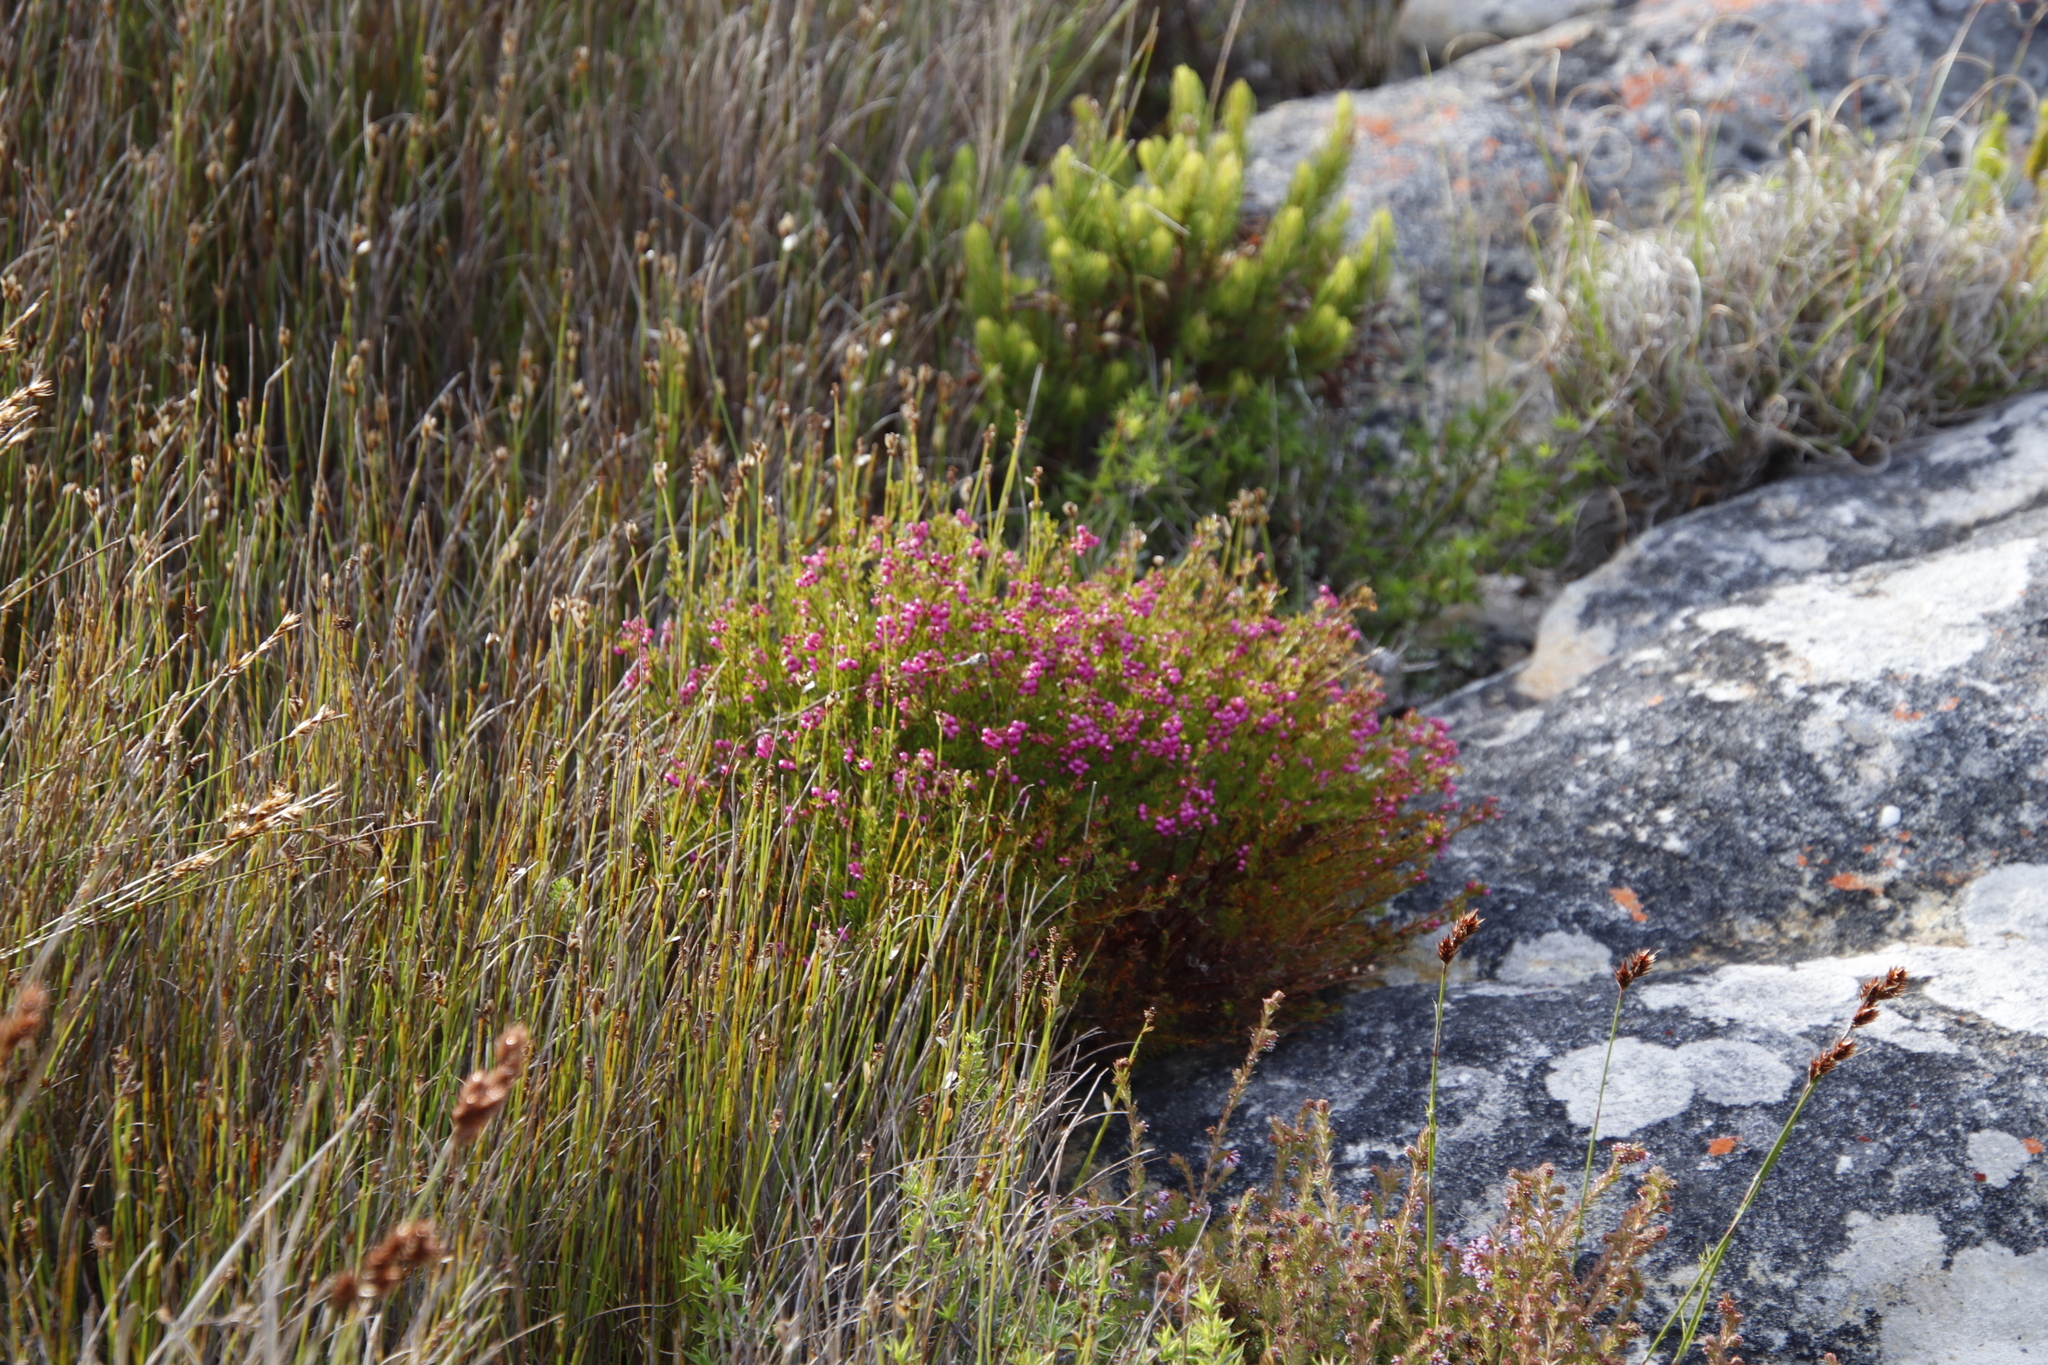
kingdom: Plantae
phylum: Tracheophyta
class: Magnoliopsida
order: Ericales
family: Ericaceae
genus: Erica
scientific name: Erica multumbellifera
